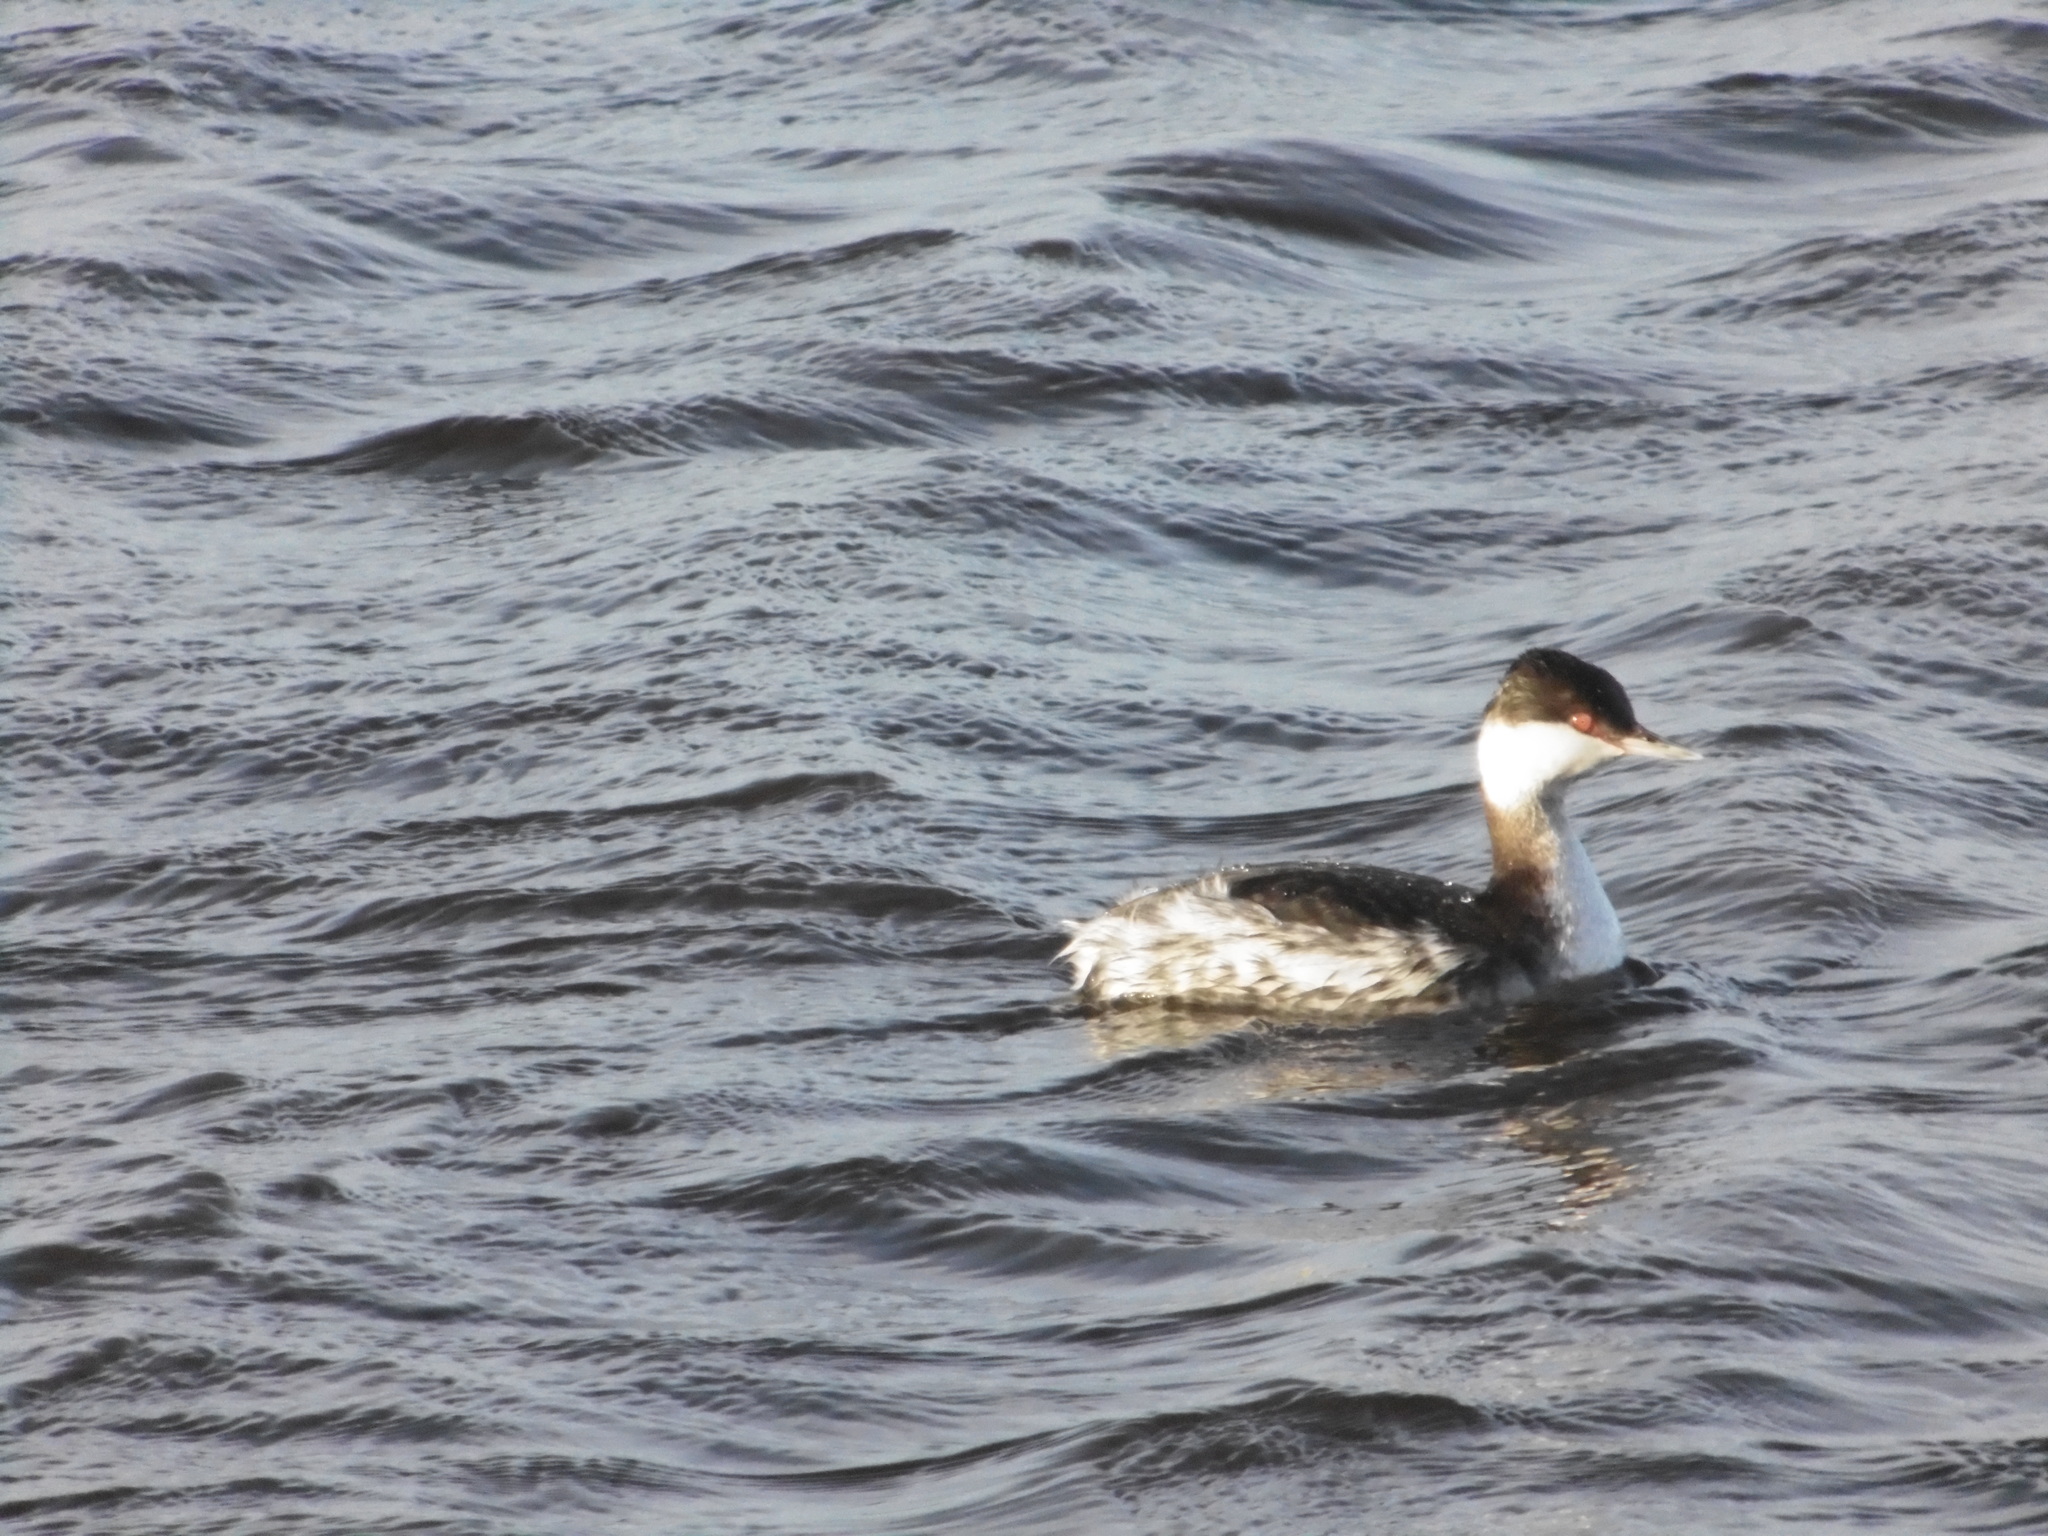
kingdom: Animalia
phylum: Chordata
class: Aves
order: Podicipediformes
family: Podicipedidae
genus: Podiceps
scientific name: Podiceps auritus
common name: Horned grebe
